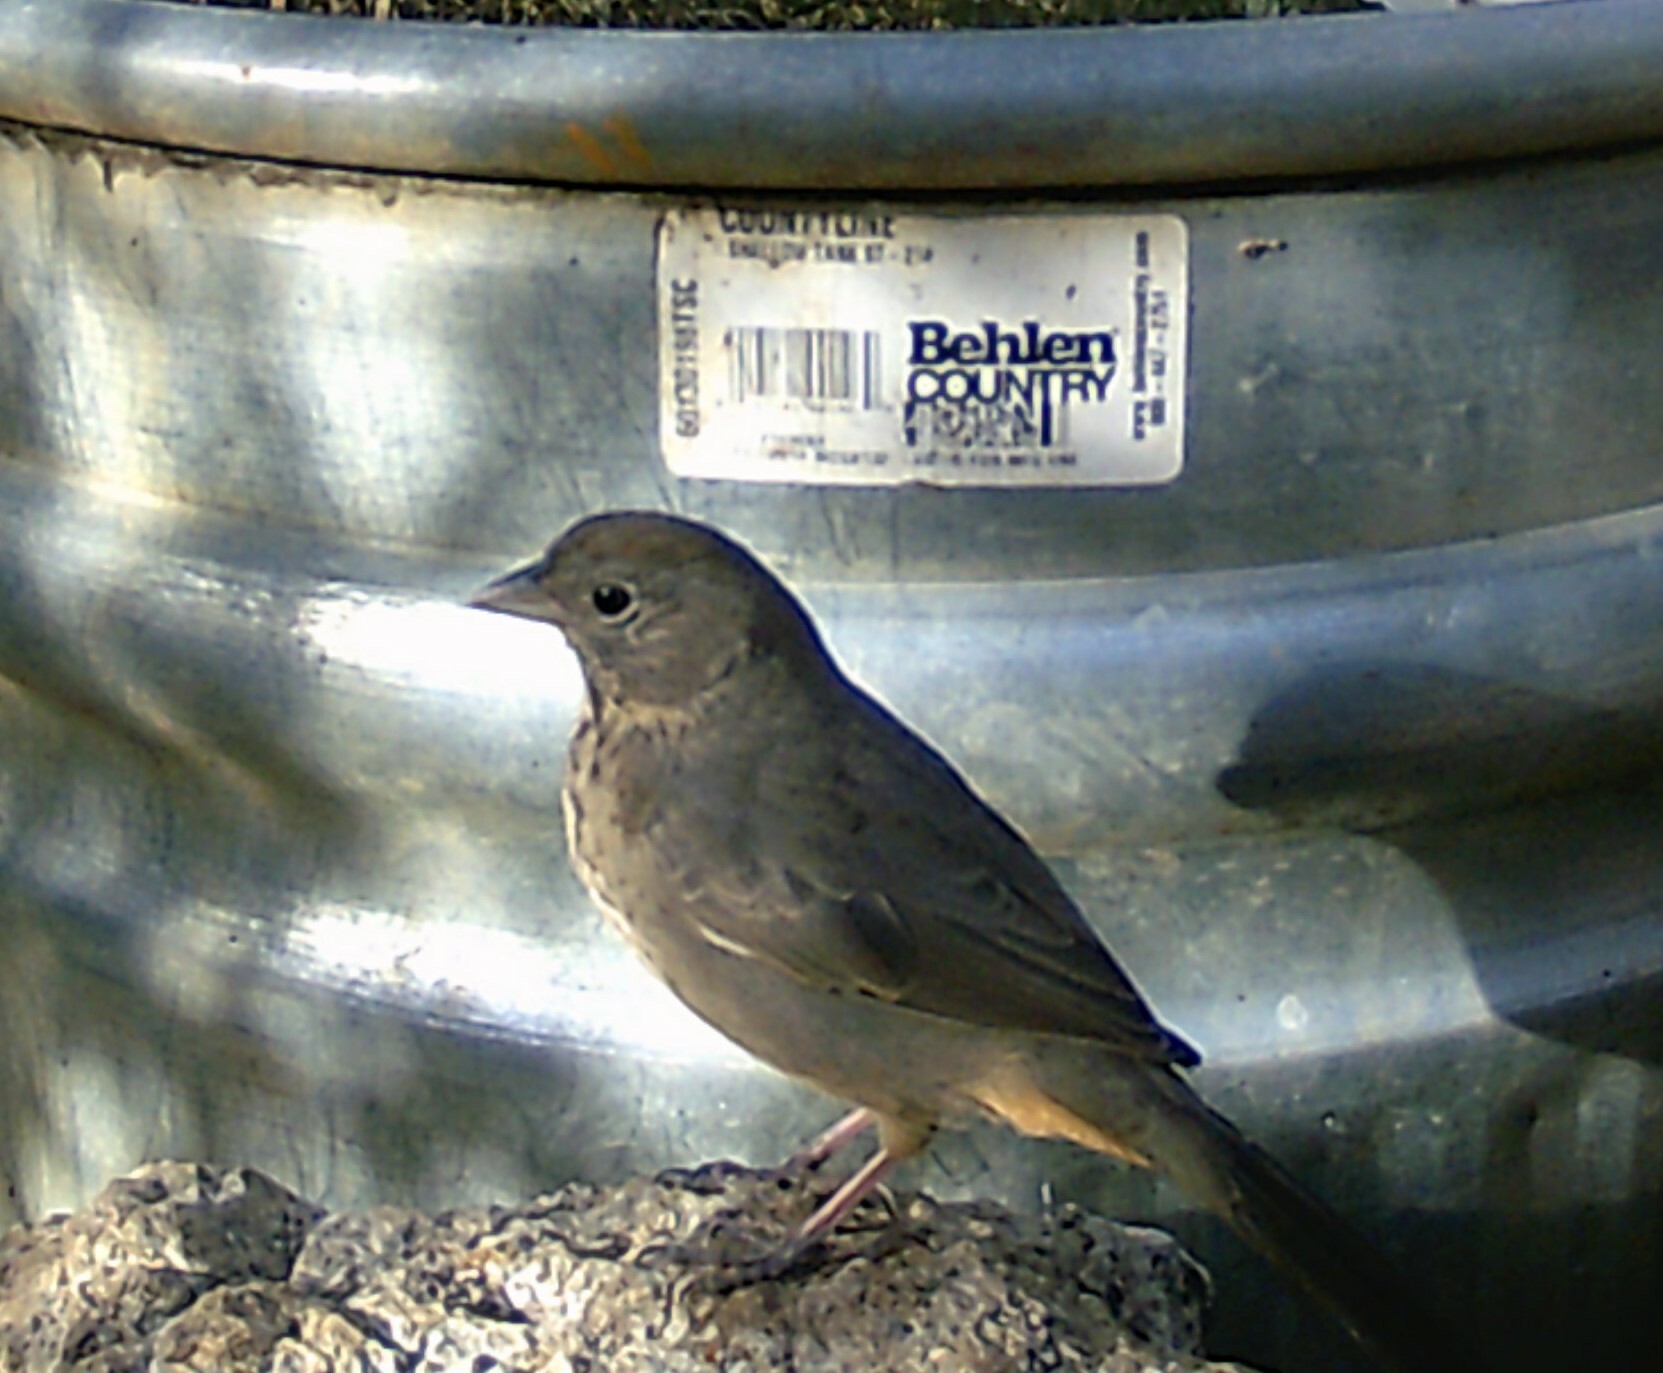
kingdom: Animalia
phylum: Chordata
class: Aves
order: Passeriformes
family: Passerellidae
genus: Melozone
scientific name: Melozone fusca
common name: Canyon towhee
